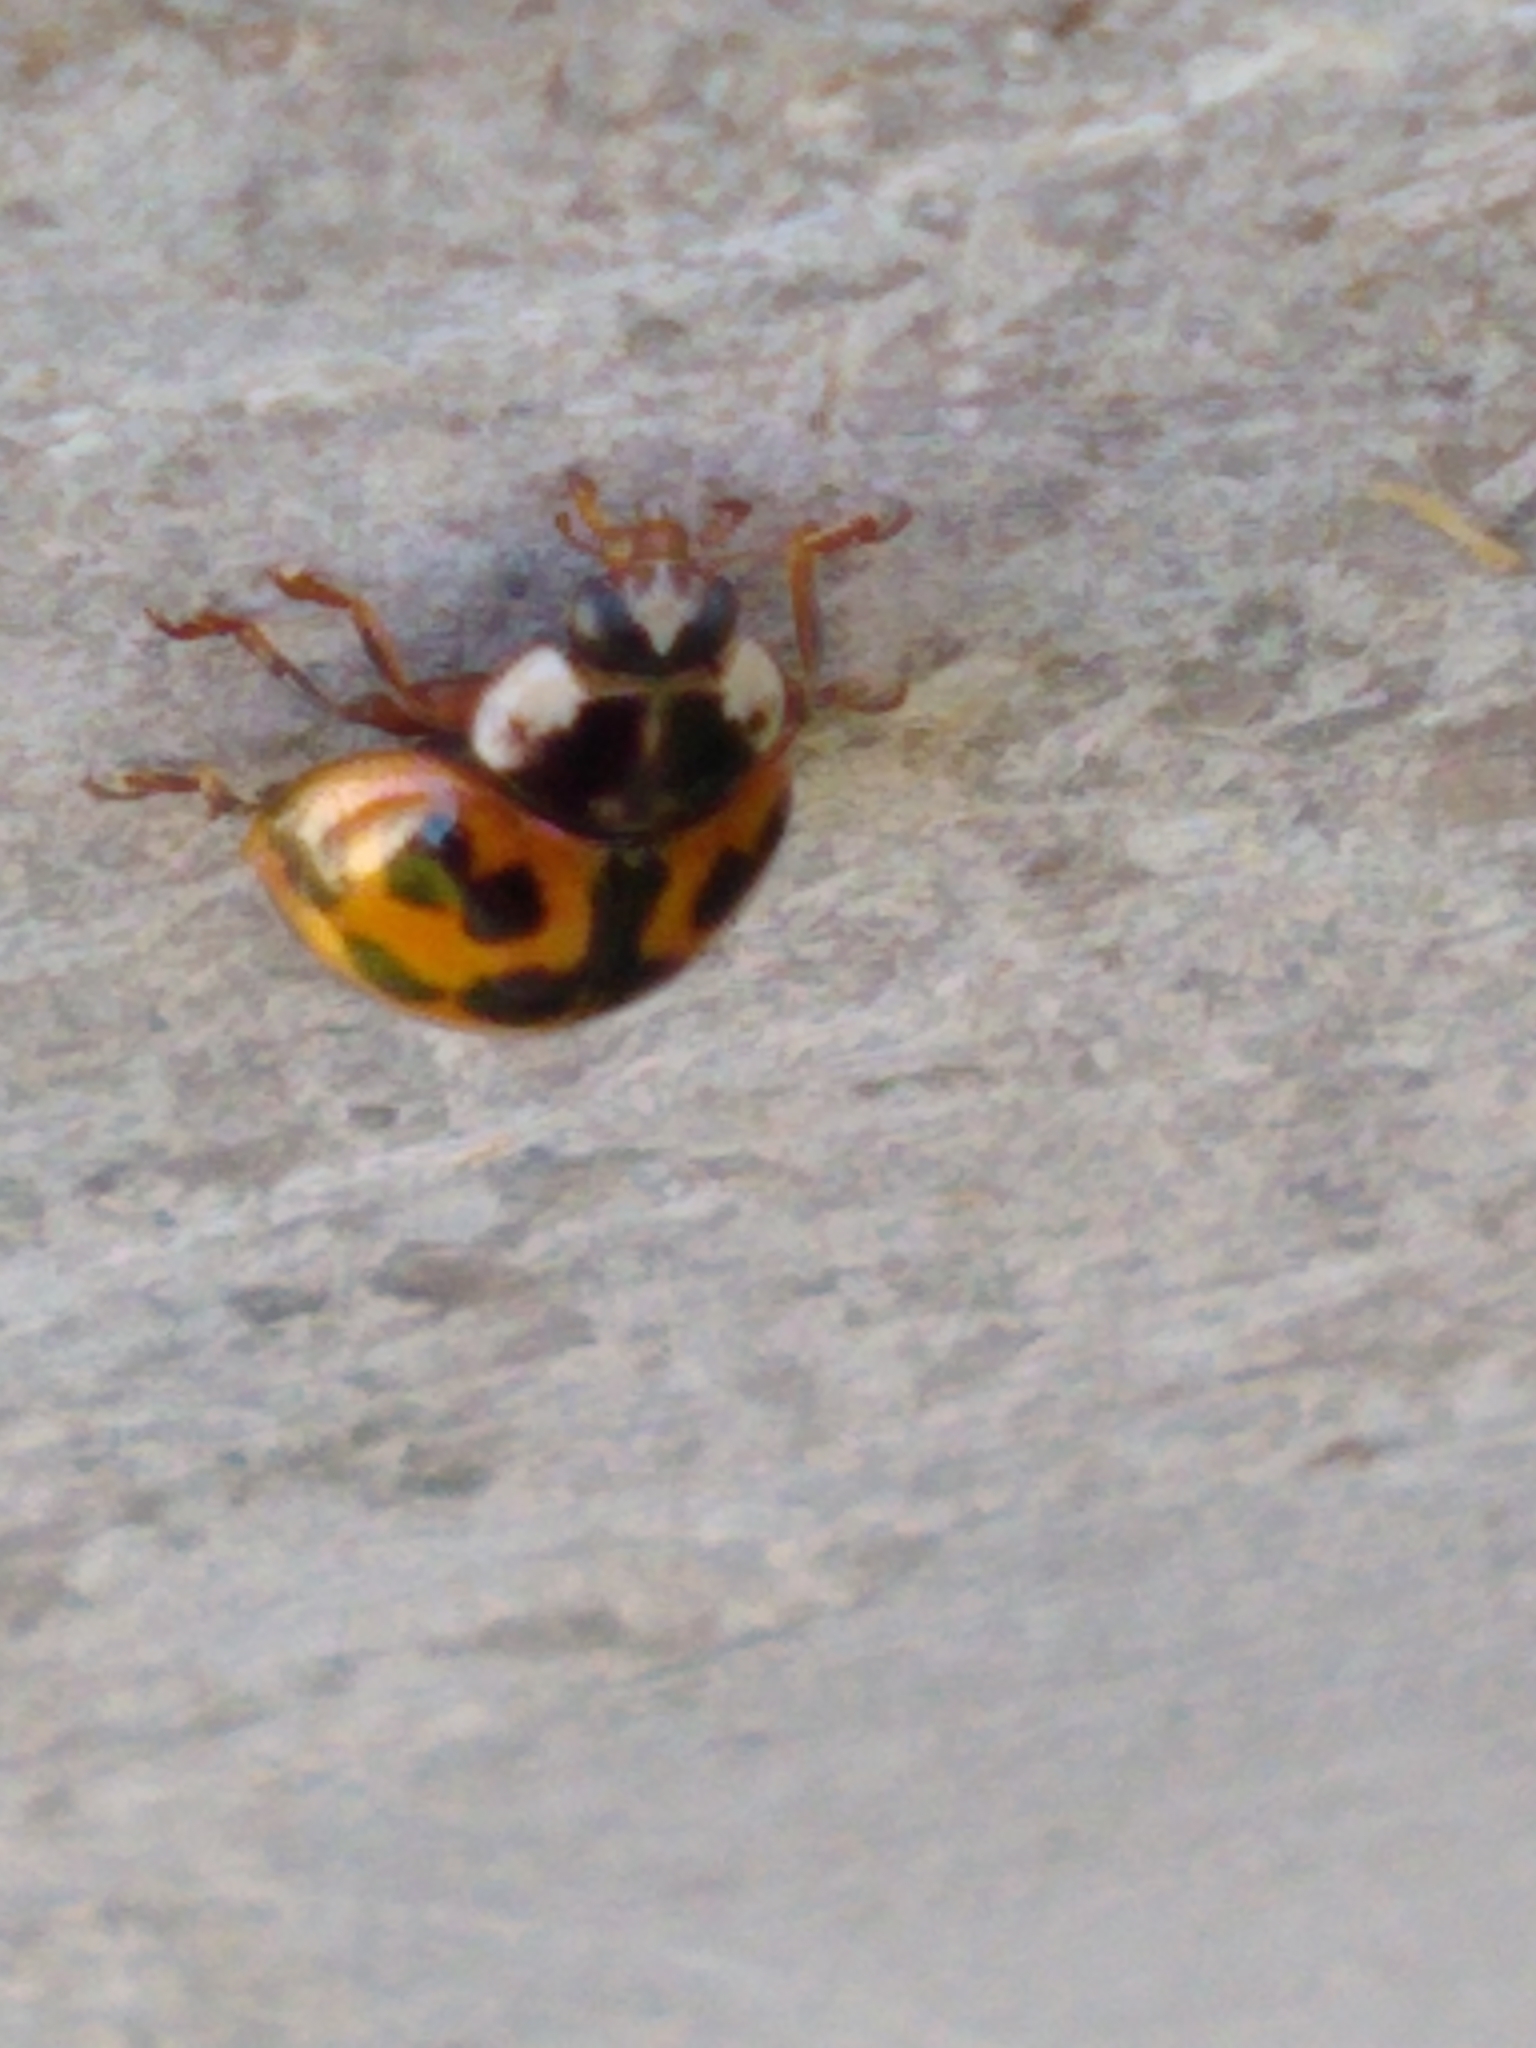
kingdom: Animalia
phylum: Arthropoda
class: Insecta
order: Coleoptera
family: Coccinellidae
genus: Harmonia
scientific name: Harmonia axyridis
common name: Harlequin ladybird
